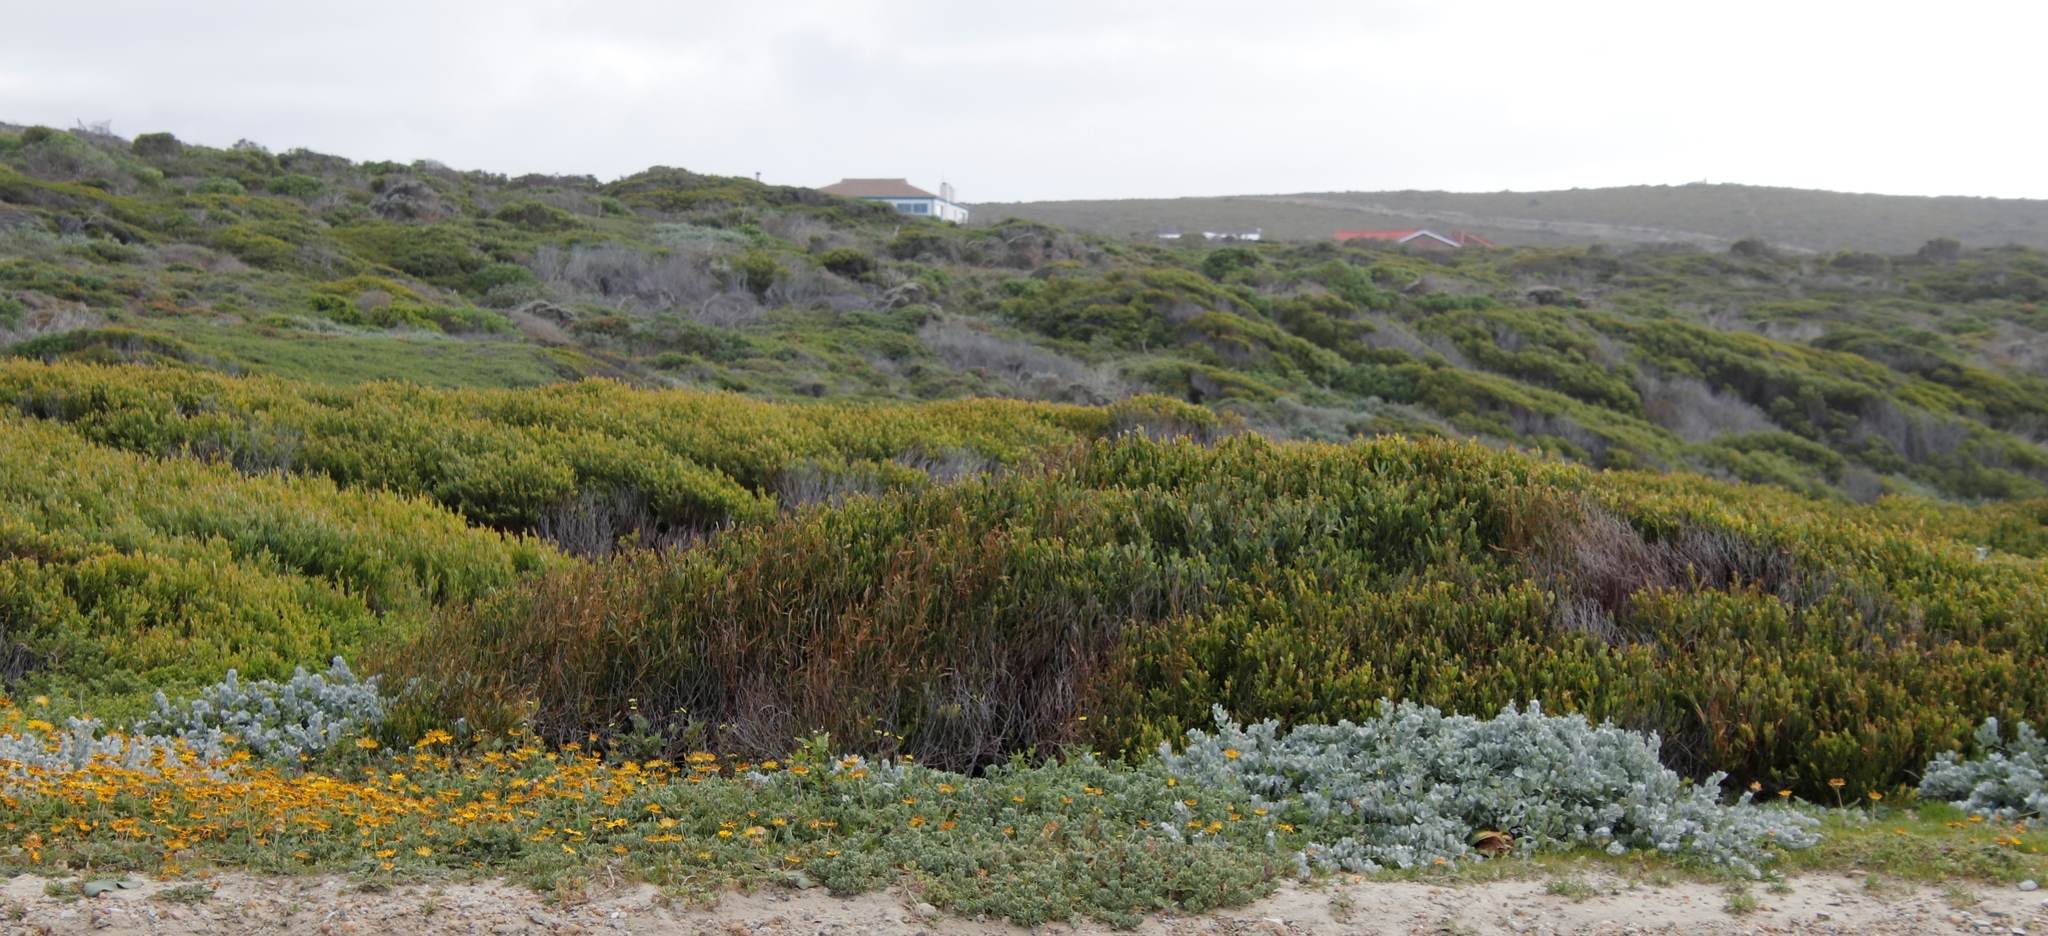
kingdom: Plantae
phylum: Tracheophyta
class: Magnoliopsida
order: Fabales
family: Fabaceae
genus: Acacia
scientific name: Acacia cyclops
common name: Coastal wattle
